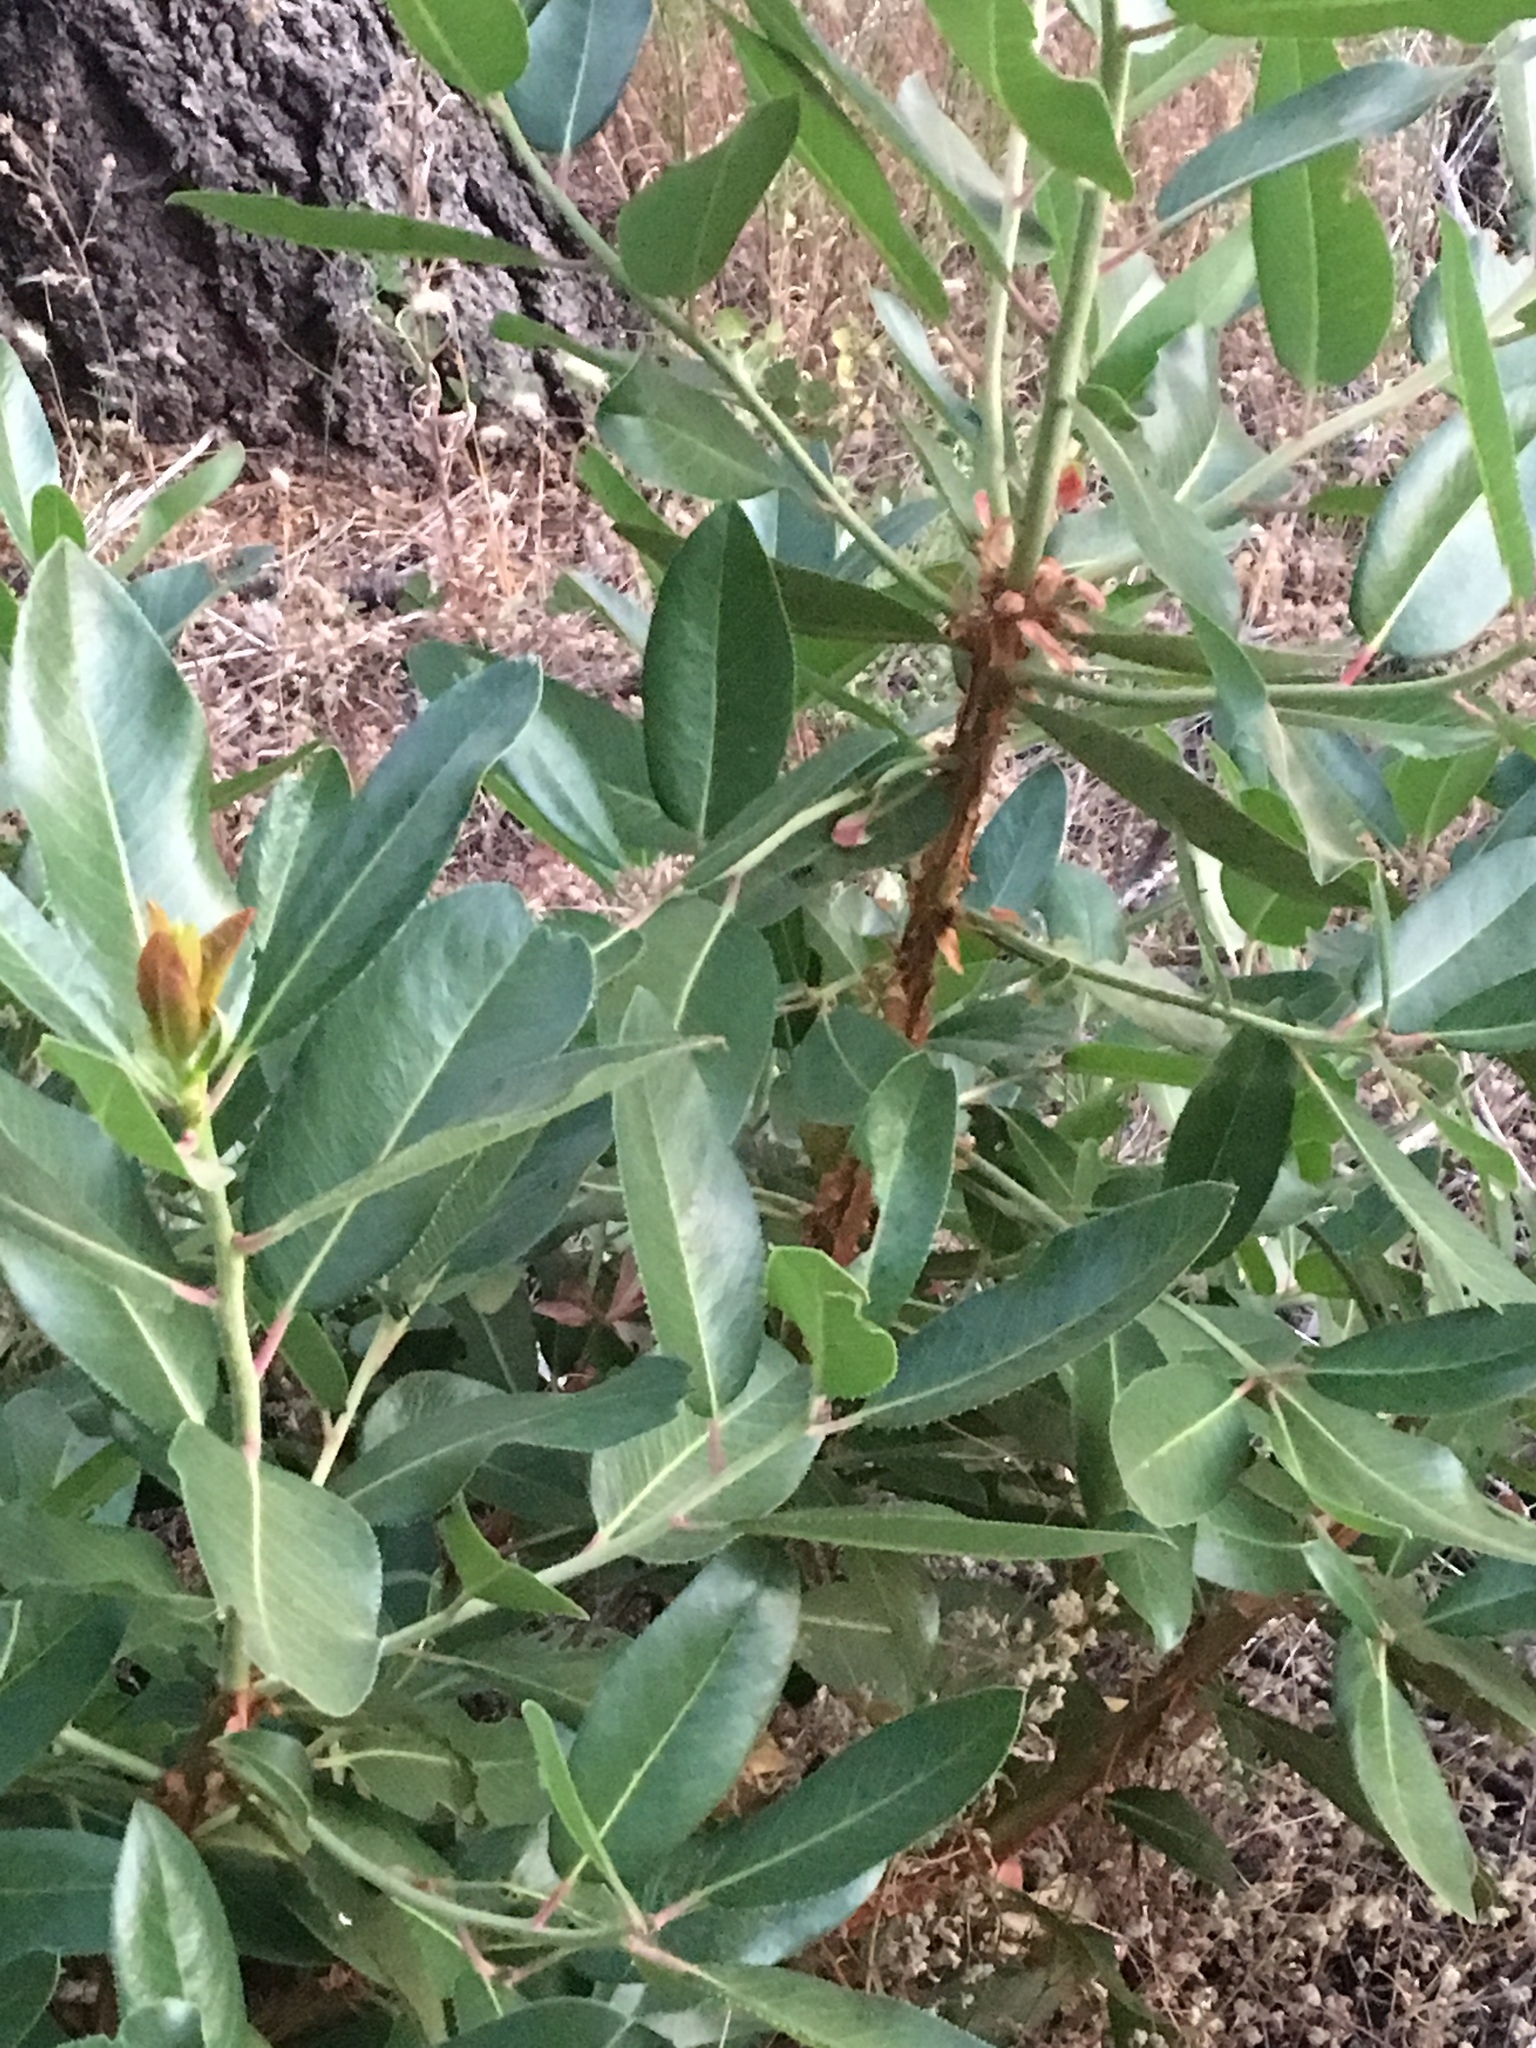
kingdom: Plantae
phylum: Tracheophyta
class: Magnoliopsida
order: Ericales
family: Ericaceae
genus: Arbutus
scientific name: Arbutus menziesii
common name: Pacific madrone
